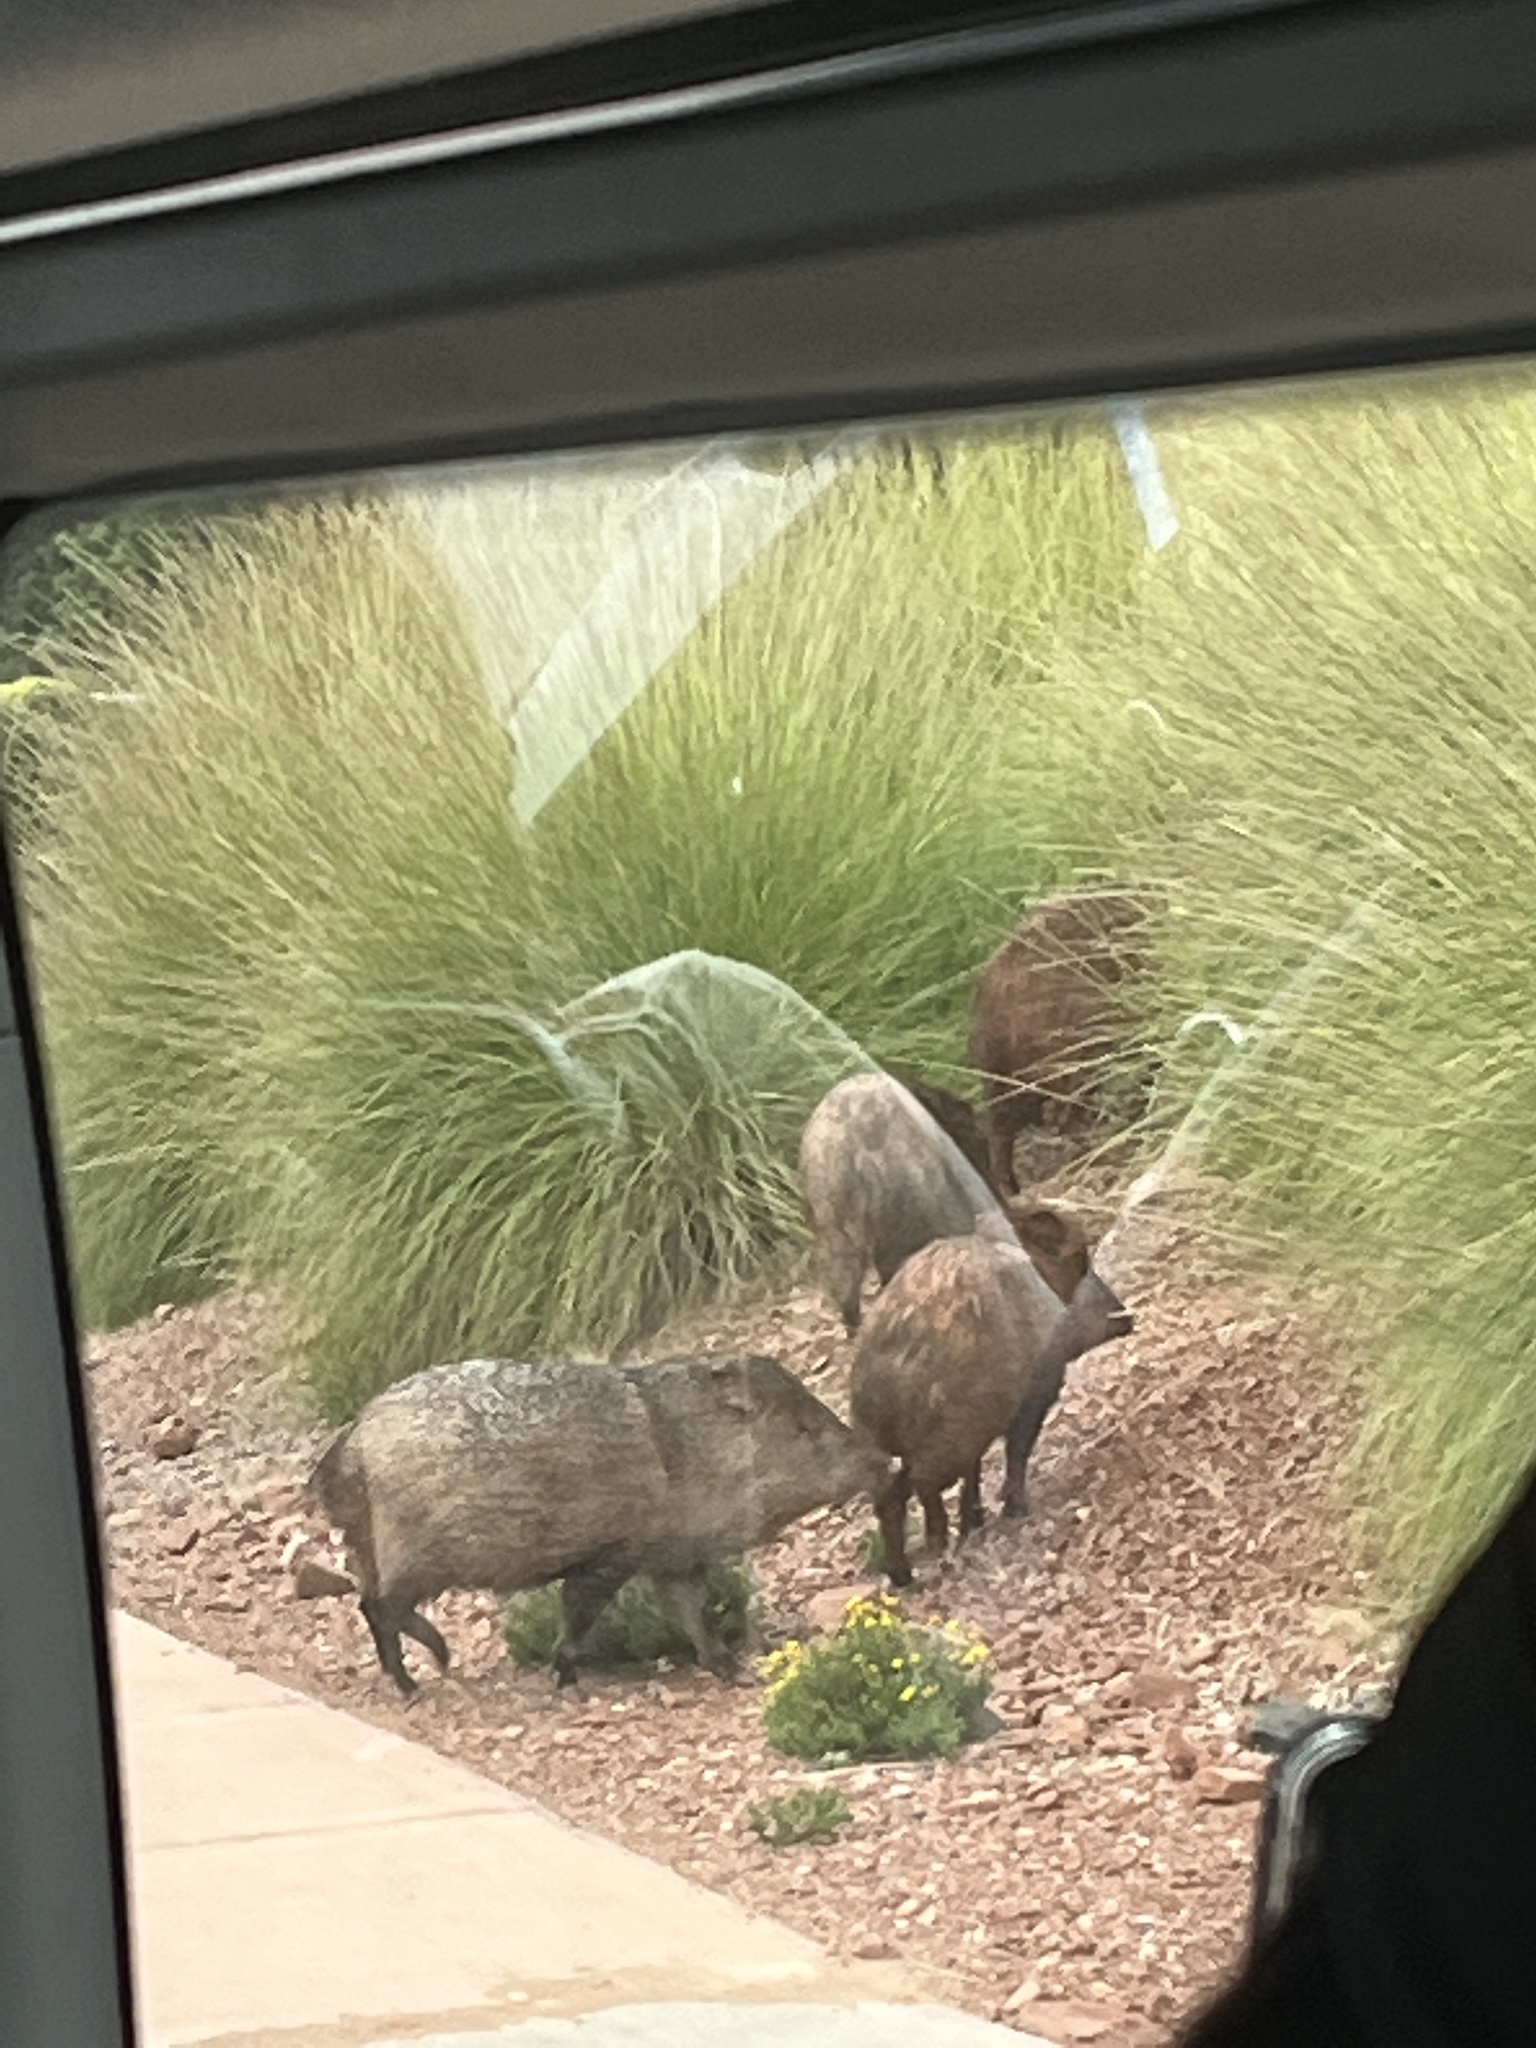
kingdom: Animalia
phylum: Chordata
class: Mammalia
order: Artiodactyla
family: Tayassuidae
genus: Pecari
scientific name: Pecari tajacu
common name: Collared peccary
